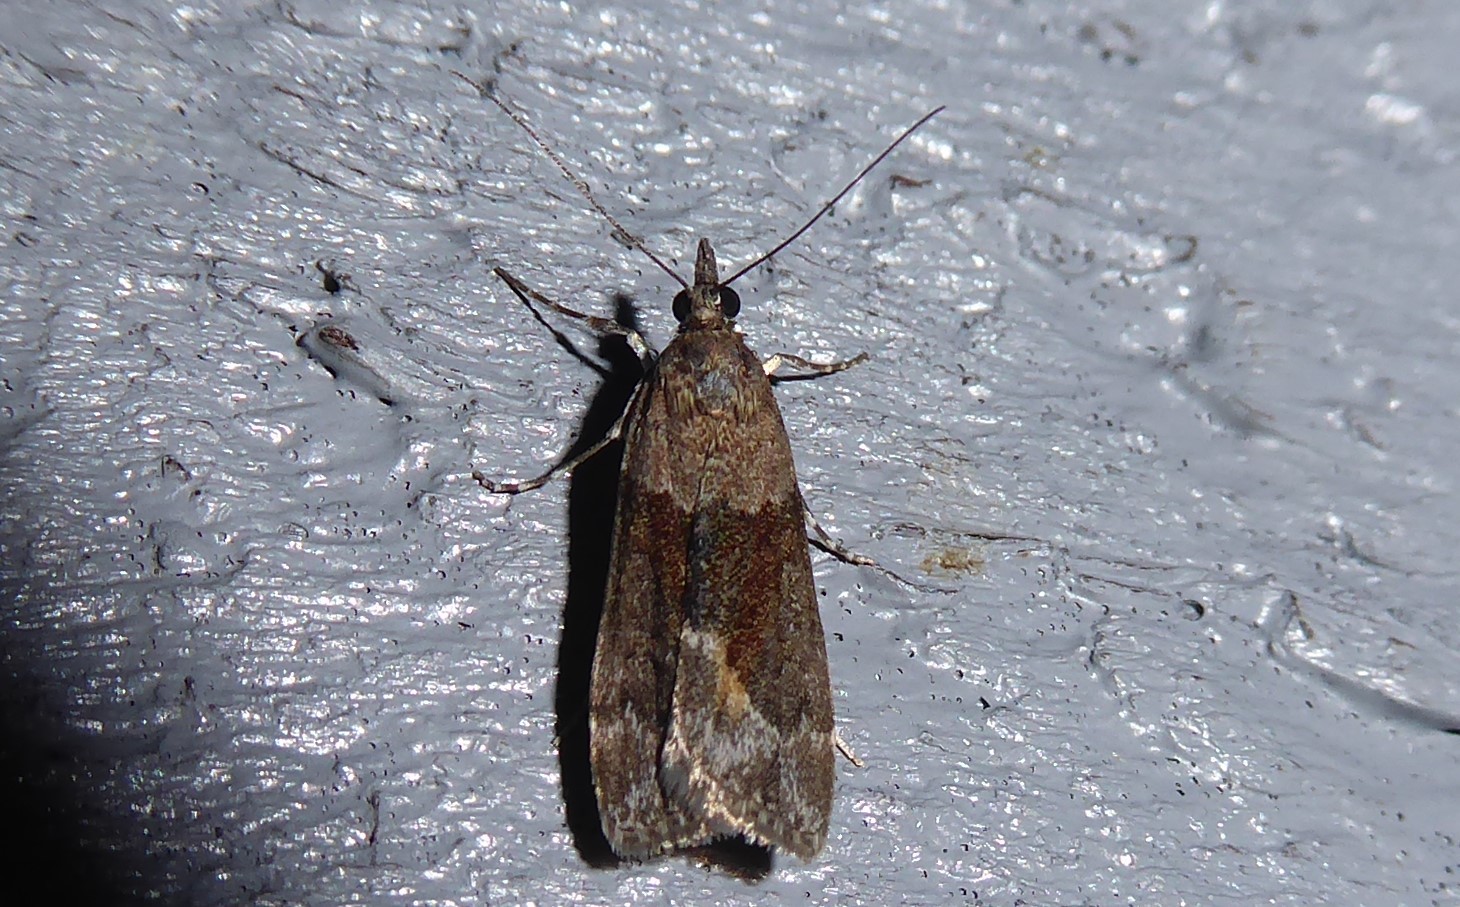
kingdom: Animalia
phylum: Arthropoda
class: Insecta
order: Lepidoptera
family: Crambidae
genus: Eudonia
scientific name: Eudonia submarginalis
